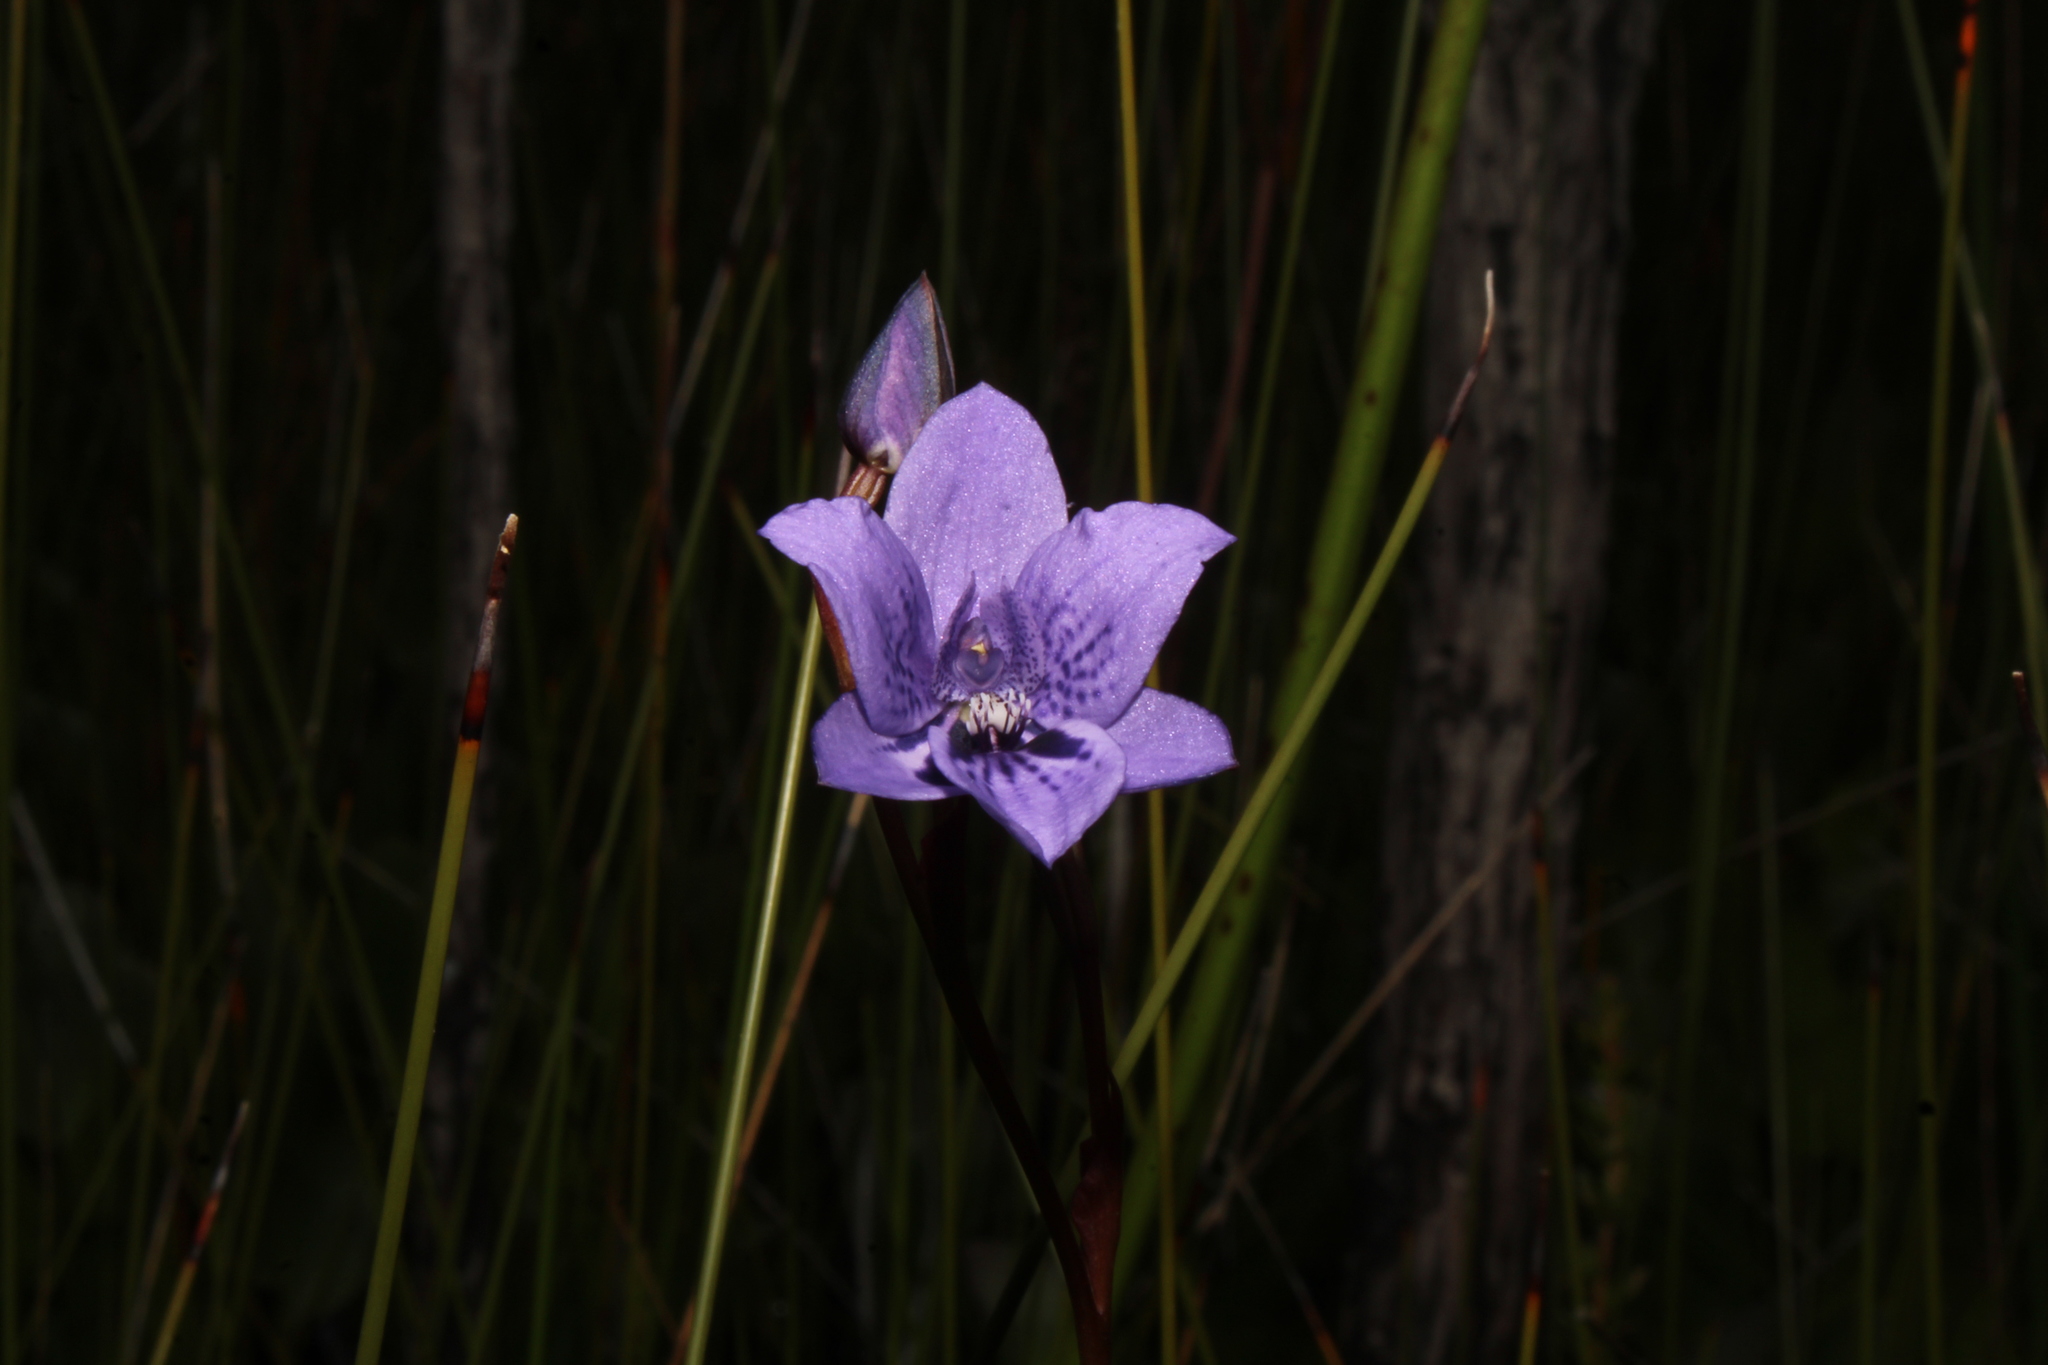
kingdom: Plantae
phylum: Tracheophyta
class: Liliopsida
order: Asparagales
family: Orchidaceae
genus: Epiblema
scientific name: Epiblema grandiflorum
